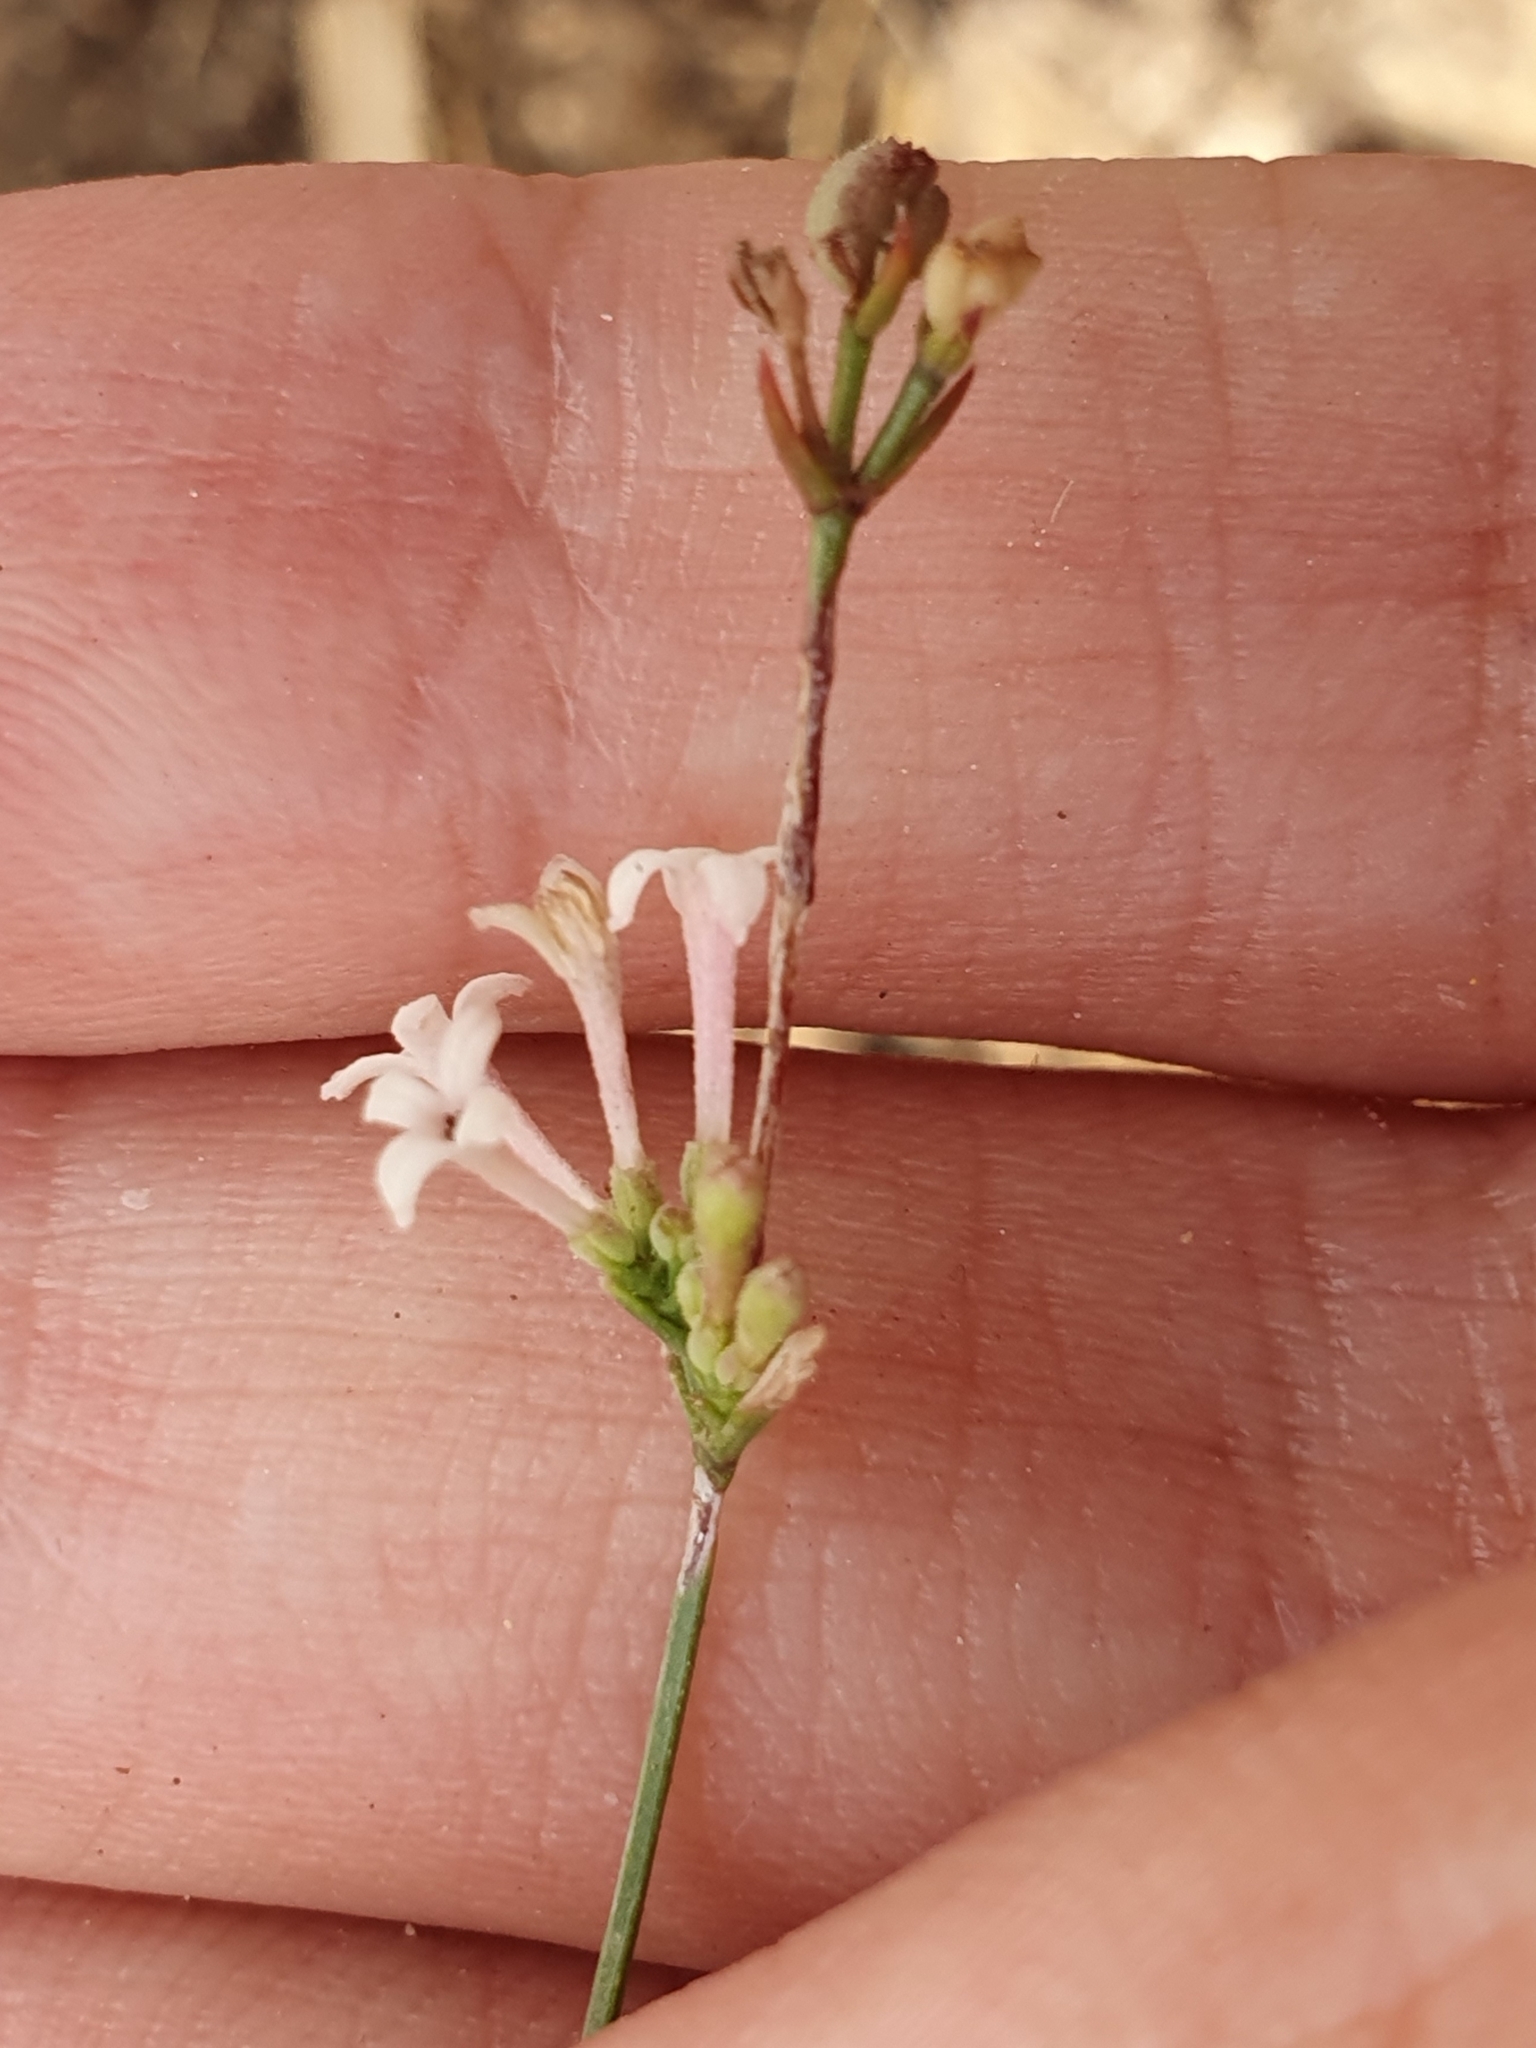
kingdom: Plantae
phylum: Tracheophyta
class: Magnoliopsida
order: Gentianales
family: Rubiaceae
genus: Cynanchica
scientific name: Cynanchica aristata
